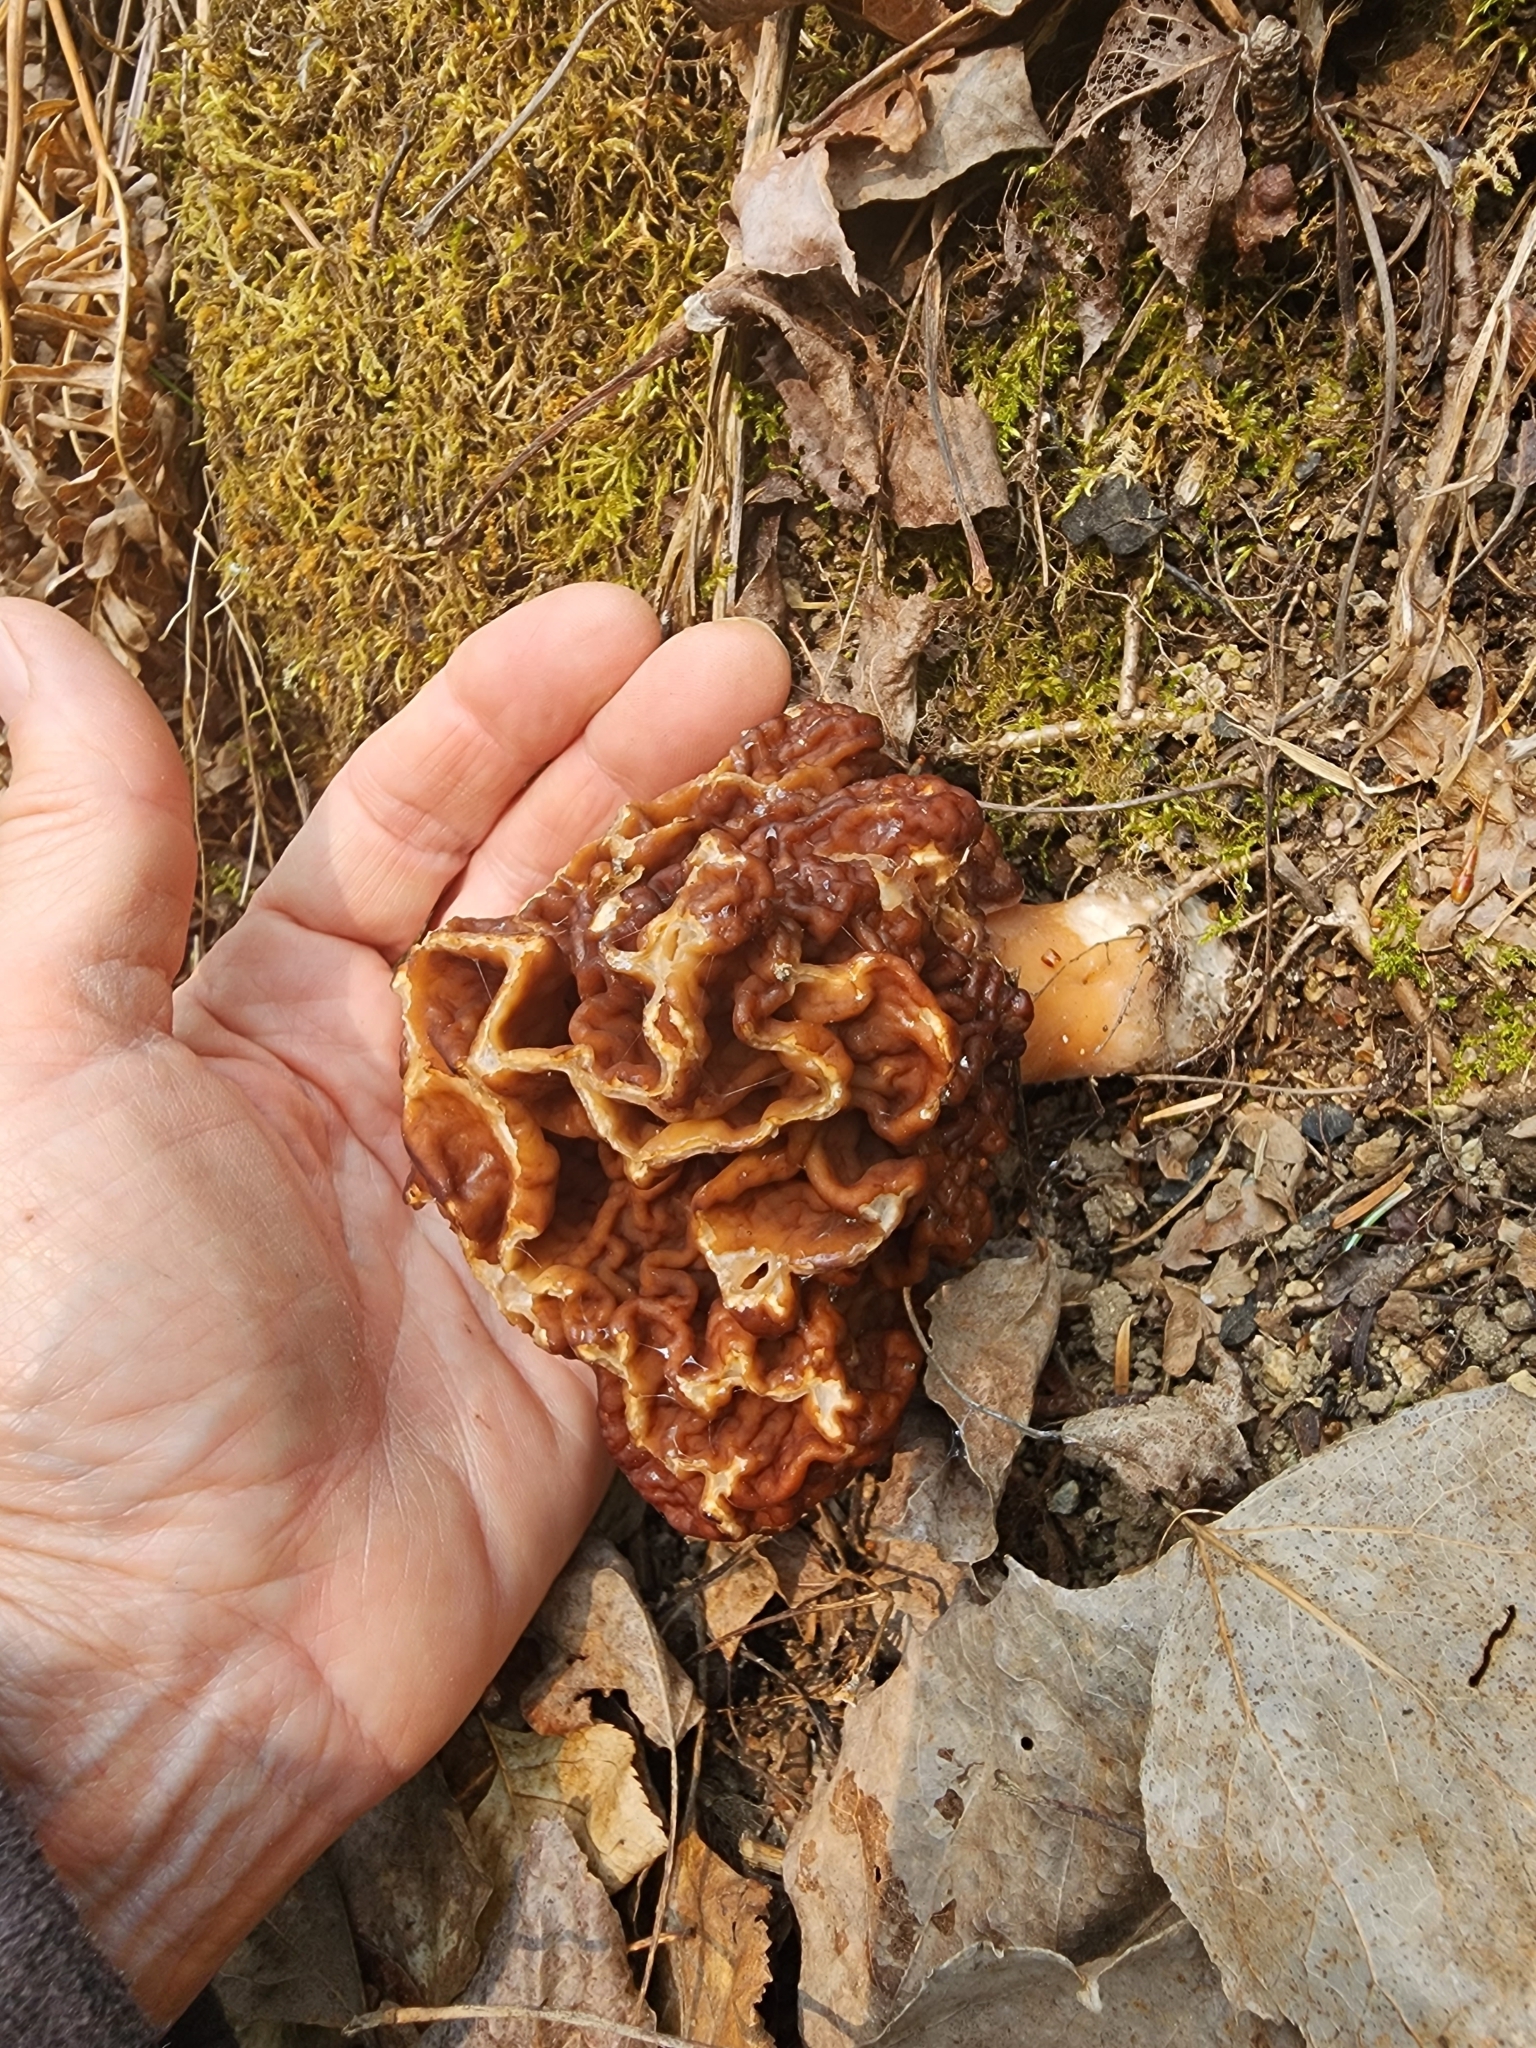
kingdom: Fungi
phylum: Ascomycota
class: Pezizomycetes
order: Pezizales
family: Discinaceae
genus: Gyromitra
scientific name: Gyromitra esculenta
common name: False morel
